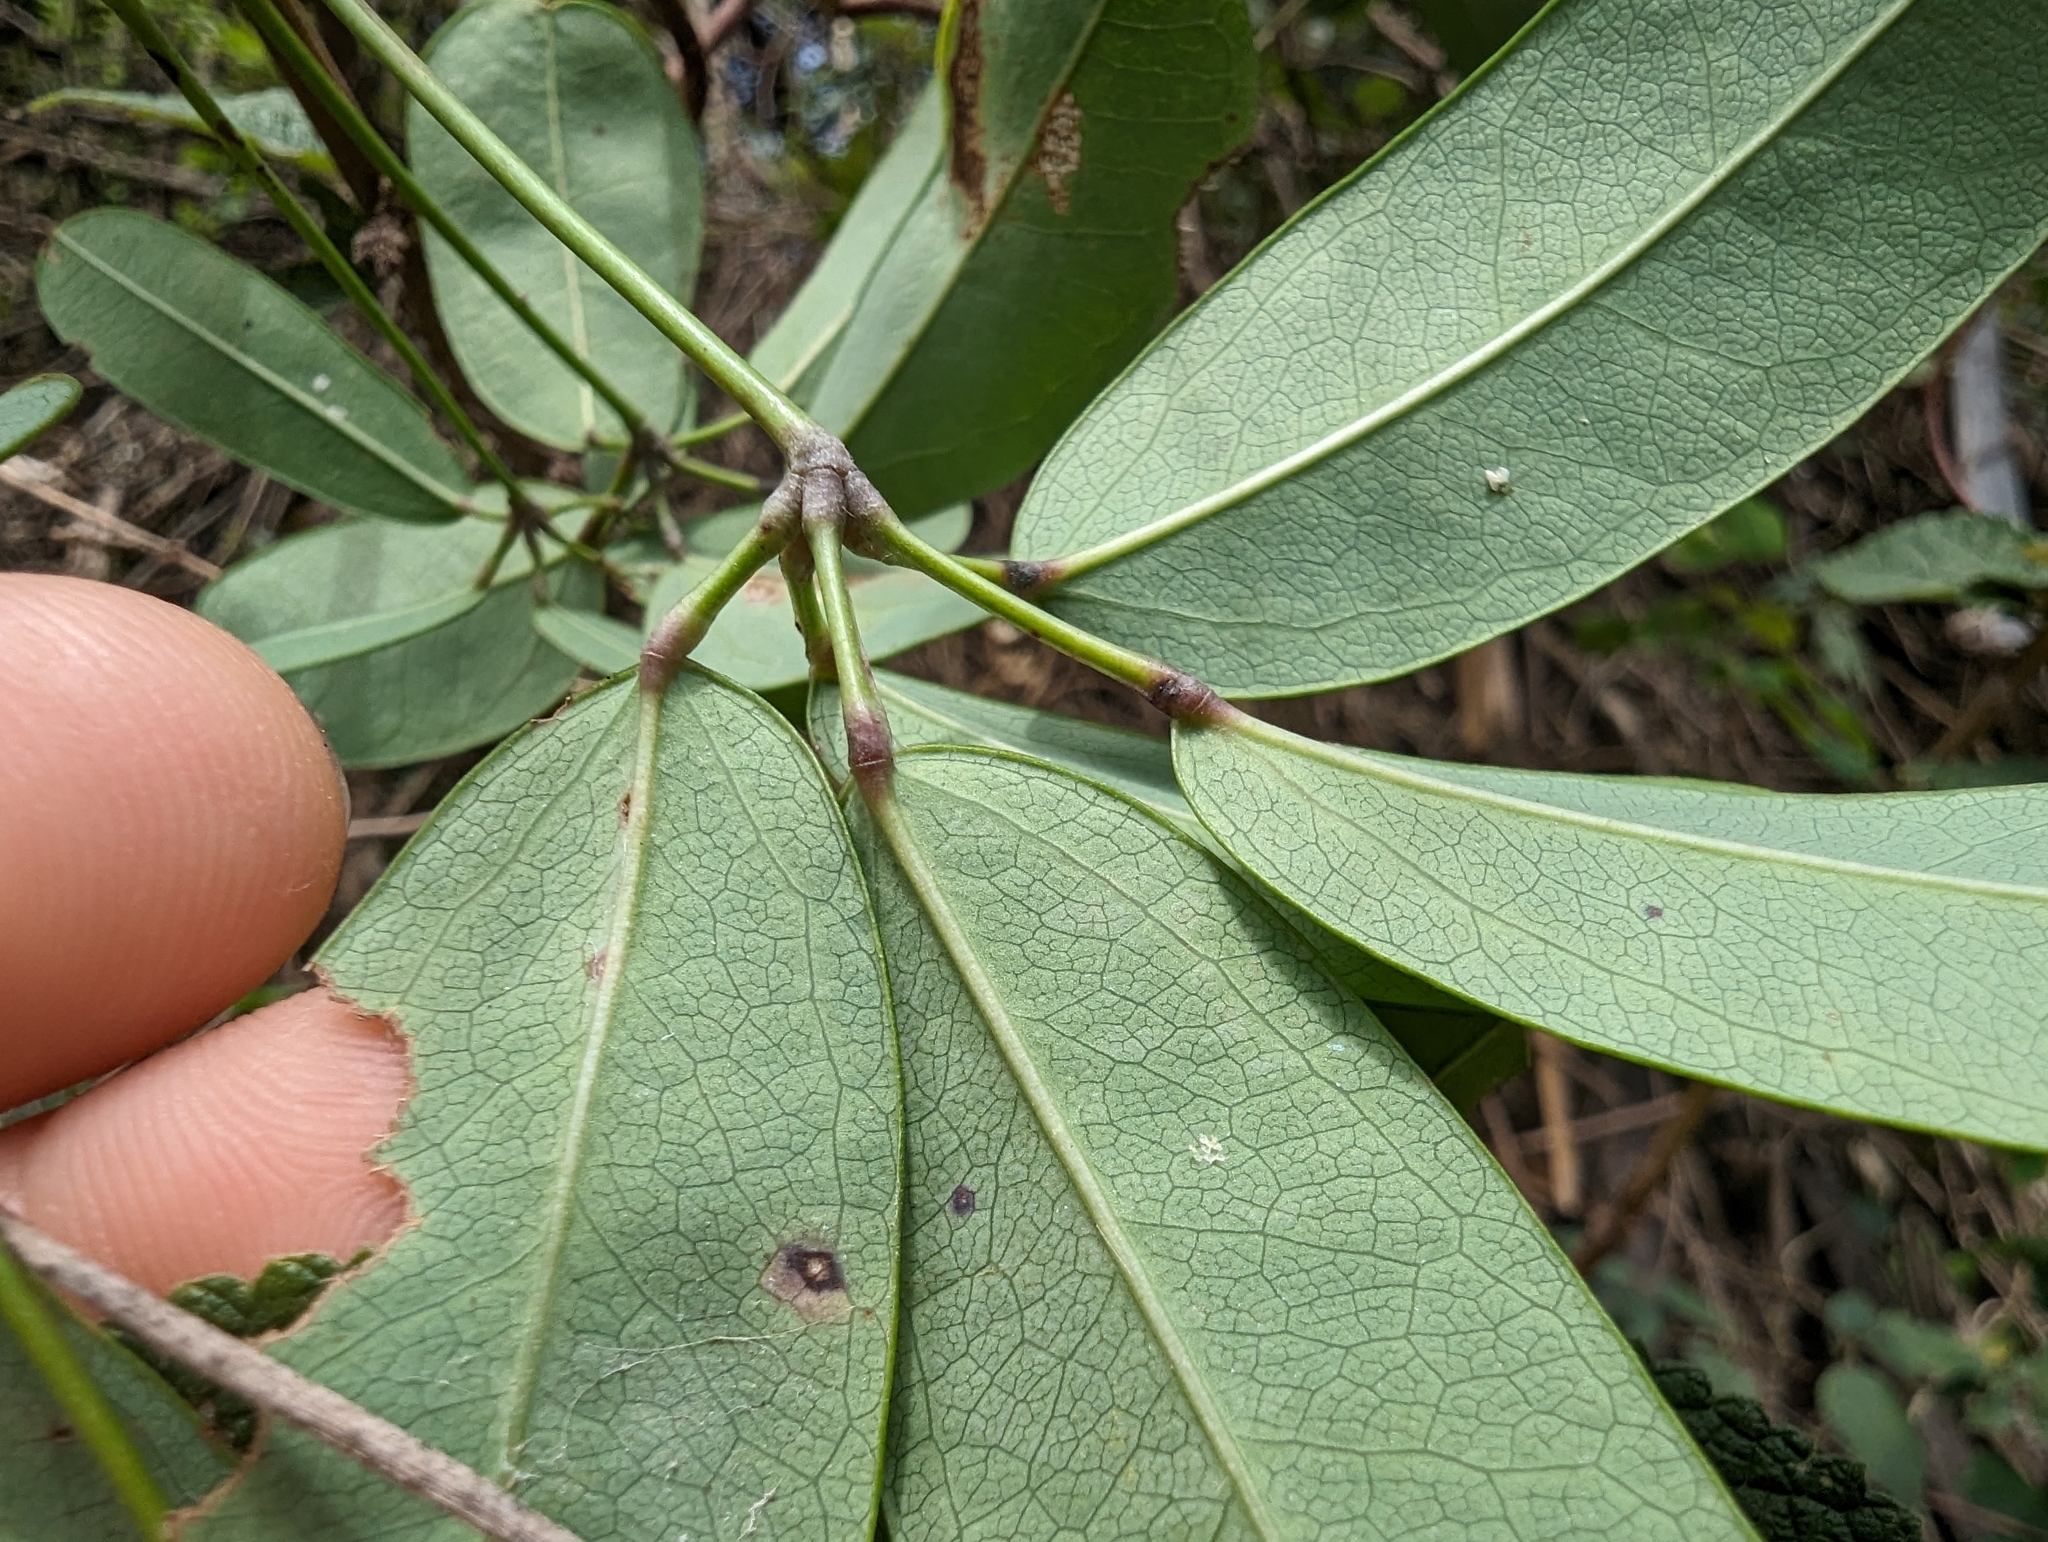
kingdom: Plantae
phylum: Tracheophyta
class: Magnoliopsida
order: Ranunculales
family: Lardizabalaceae
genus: Akebia
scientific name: Akebia longeracemosa
